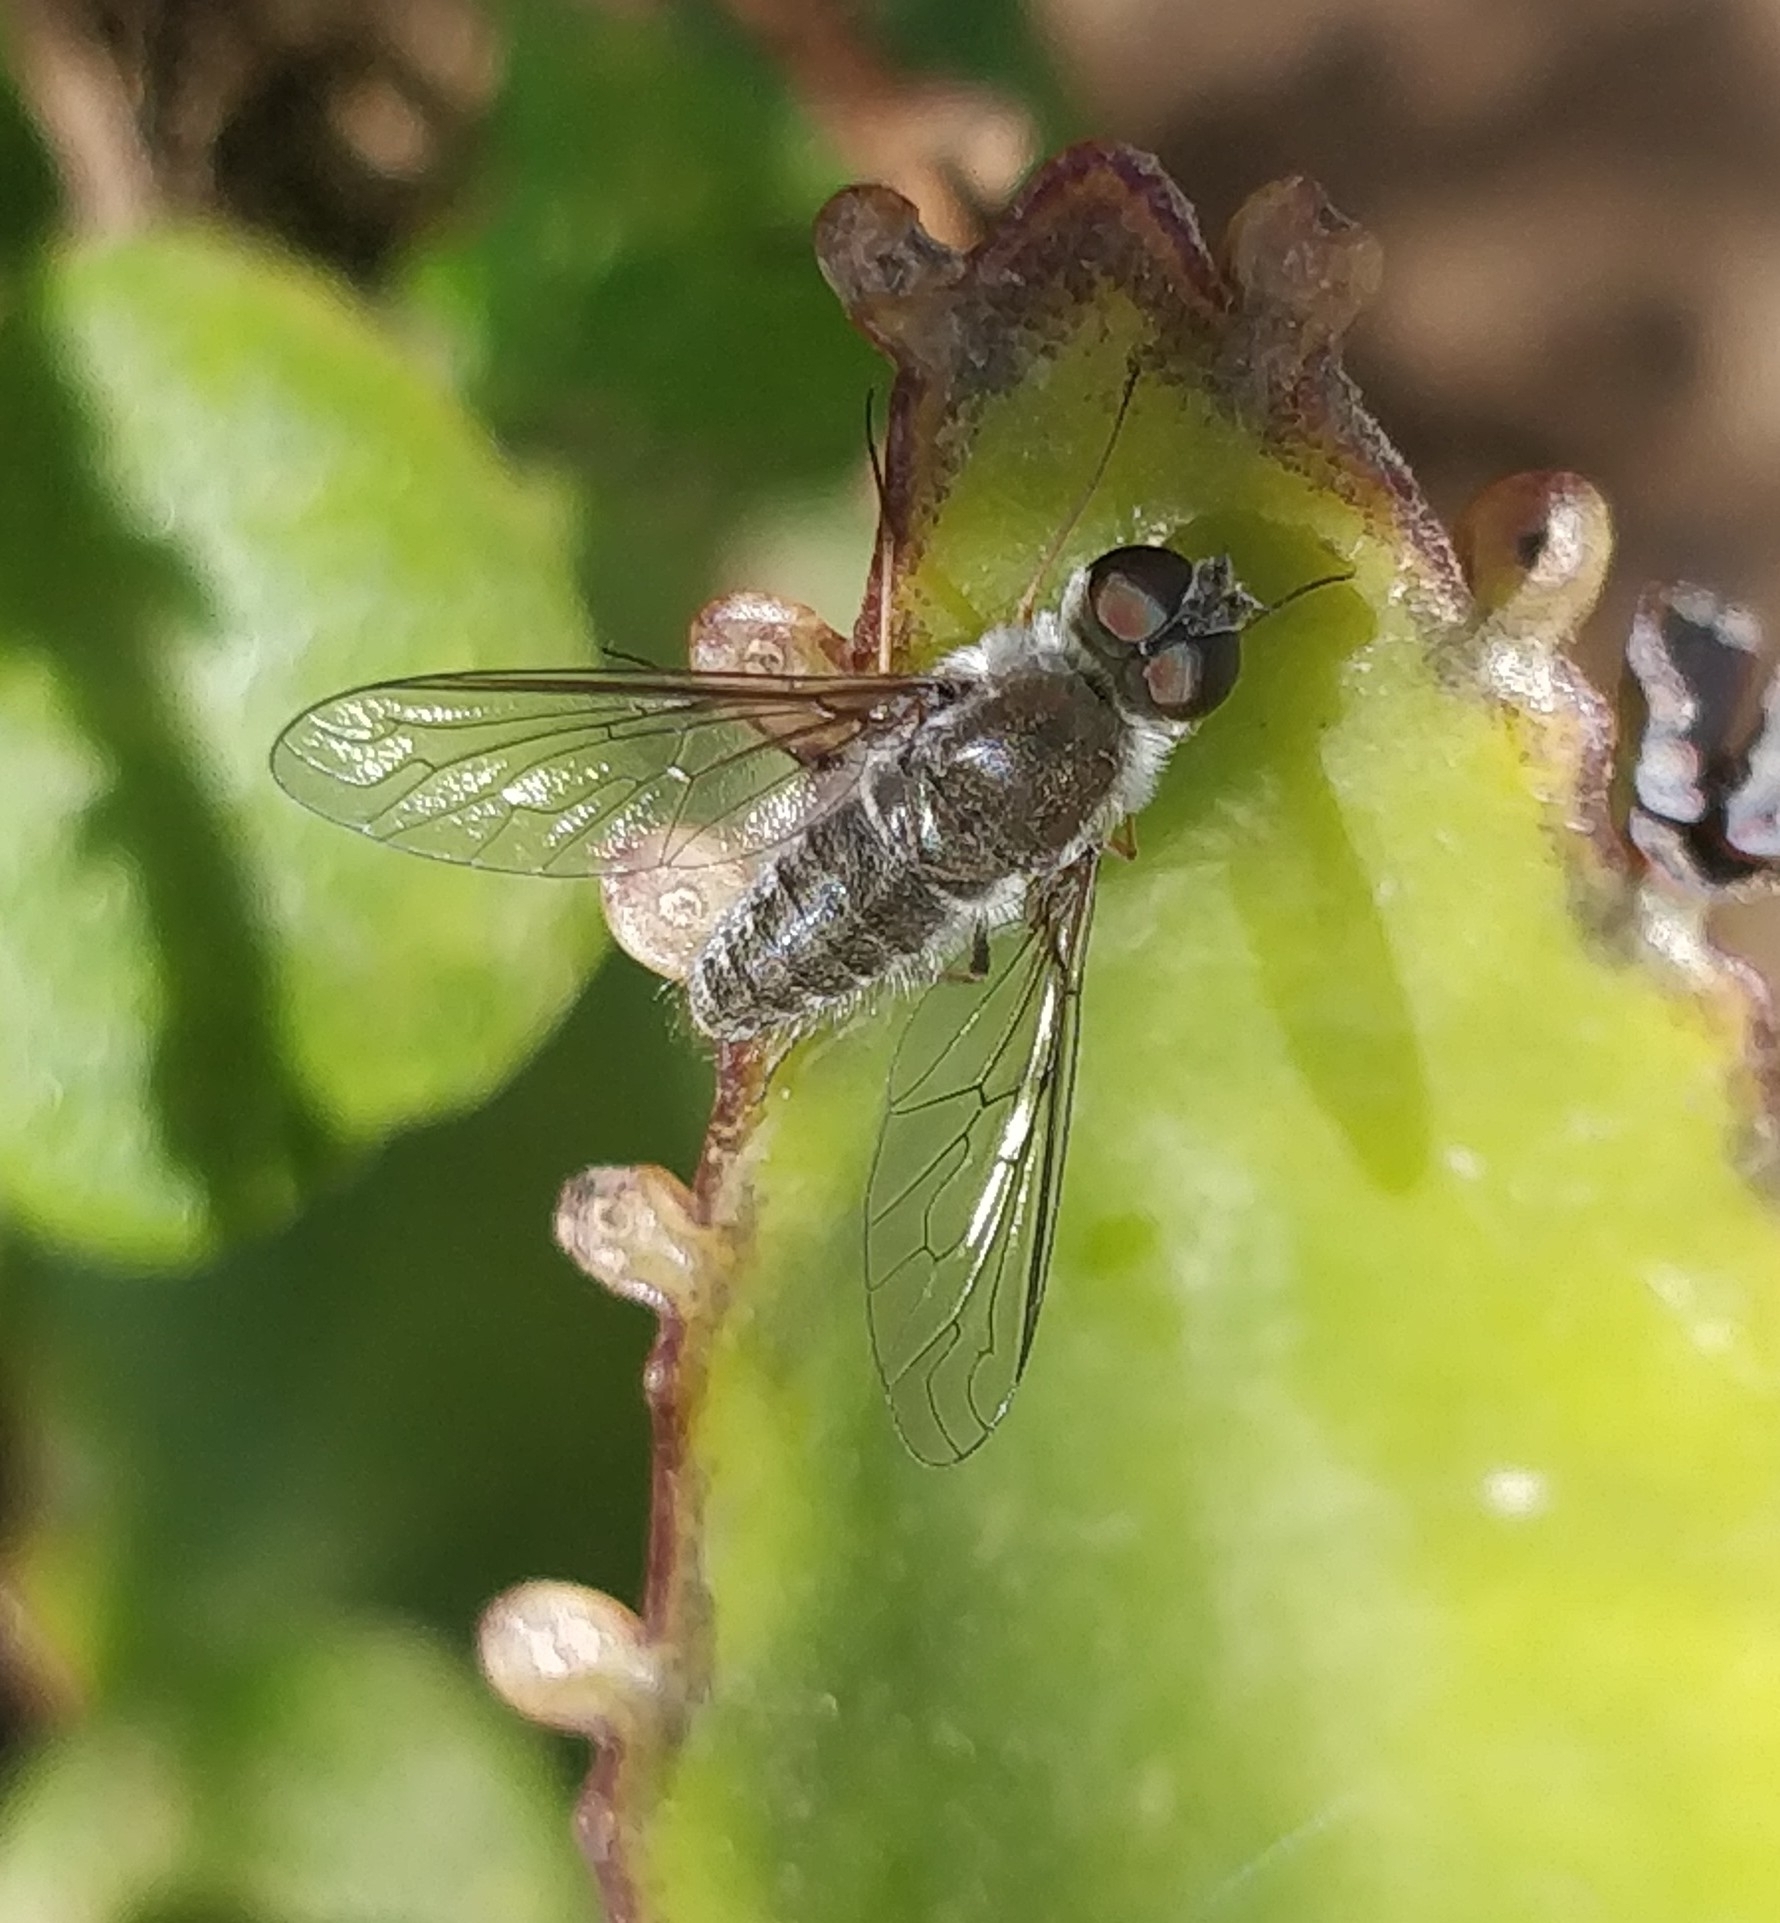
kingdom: Animalia
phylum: Arthropoda
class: Insecta
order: Diptera
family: Bombyliidae
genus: Petrorossia
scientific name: Petrorossia guanchorum
